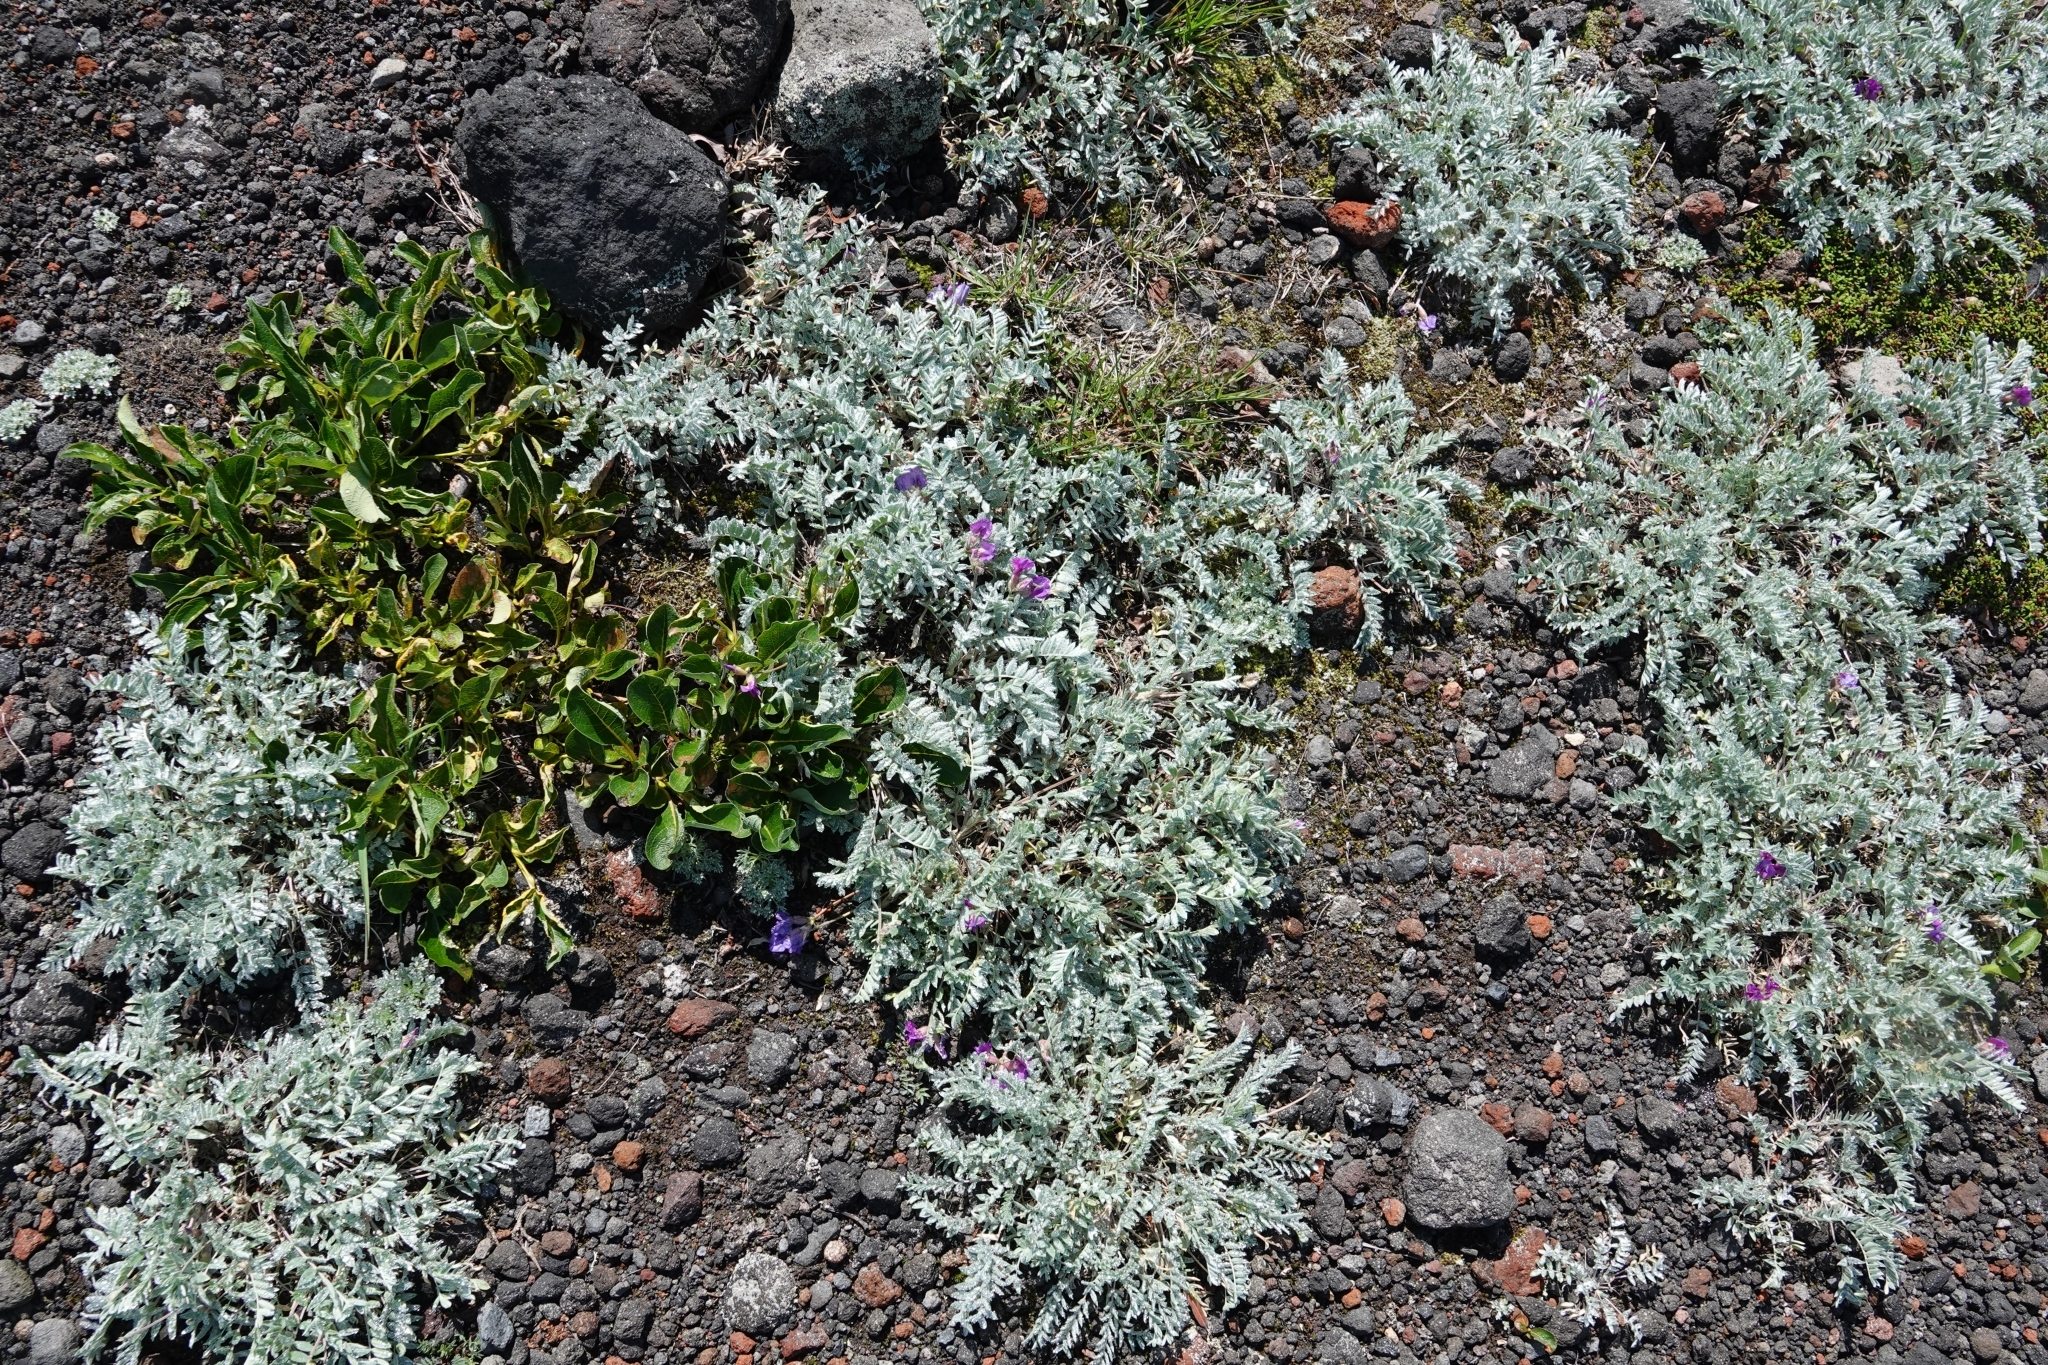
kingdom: Plantae
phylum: Tracheophyta
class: Magnoliopsida
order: Fabales
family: Fabaceae
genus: Oxytropis
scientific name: Oxytropis adamsiana
